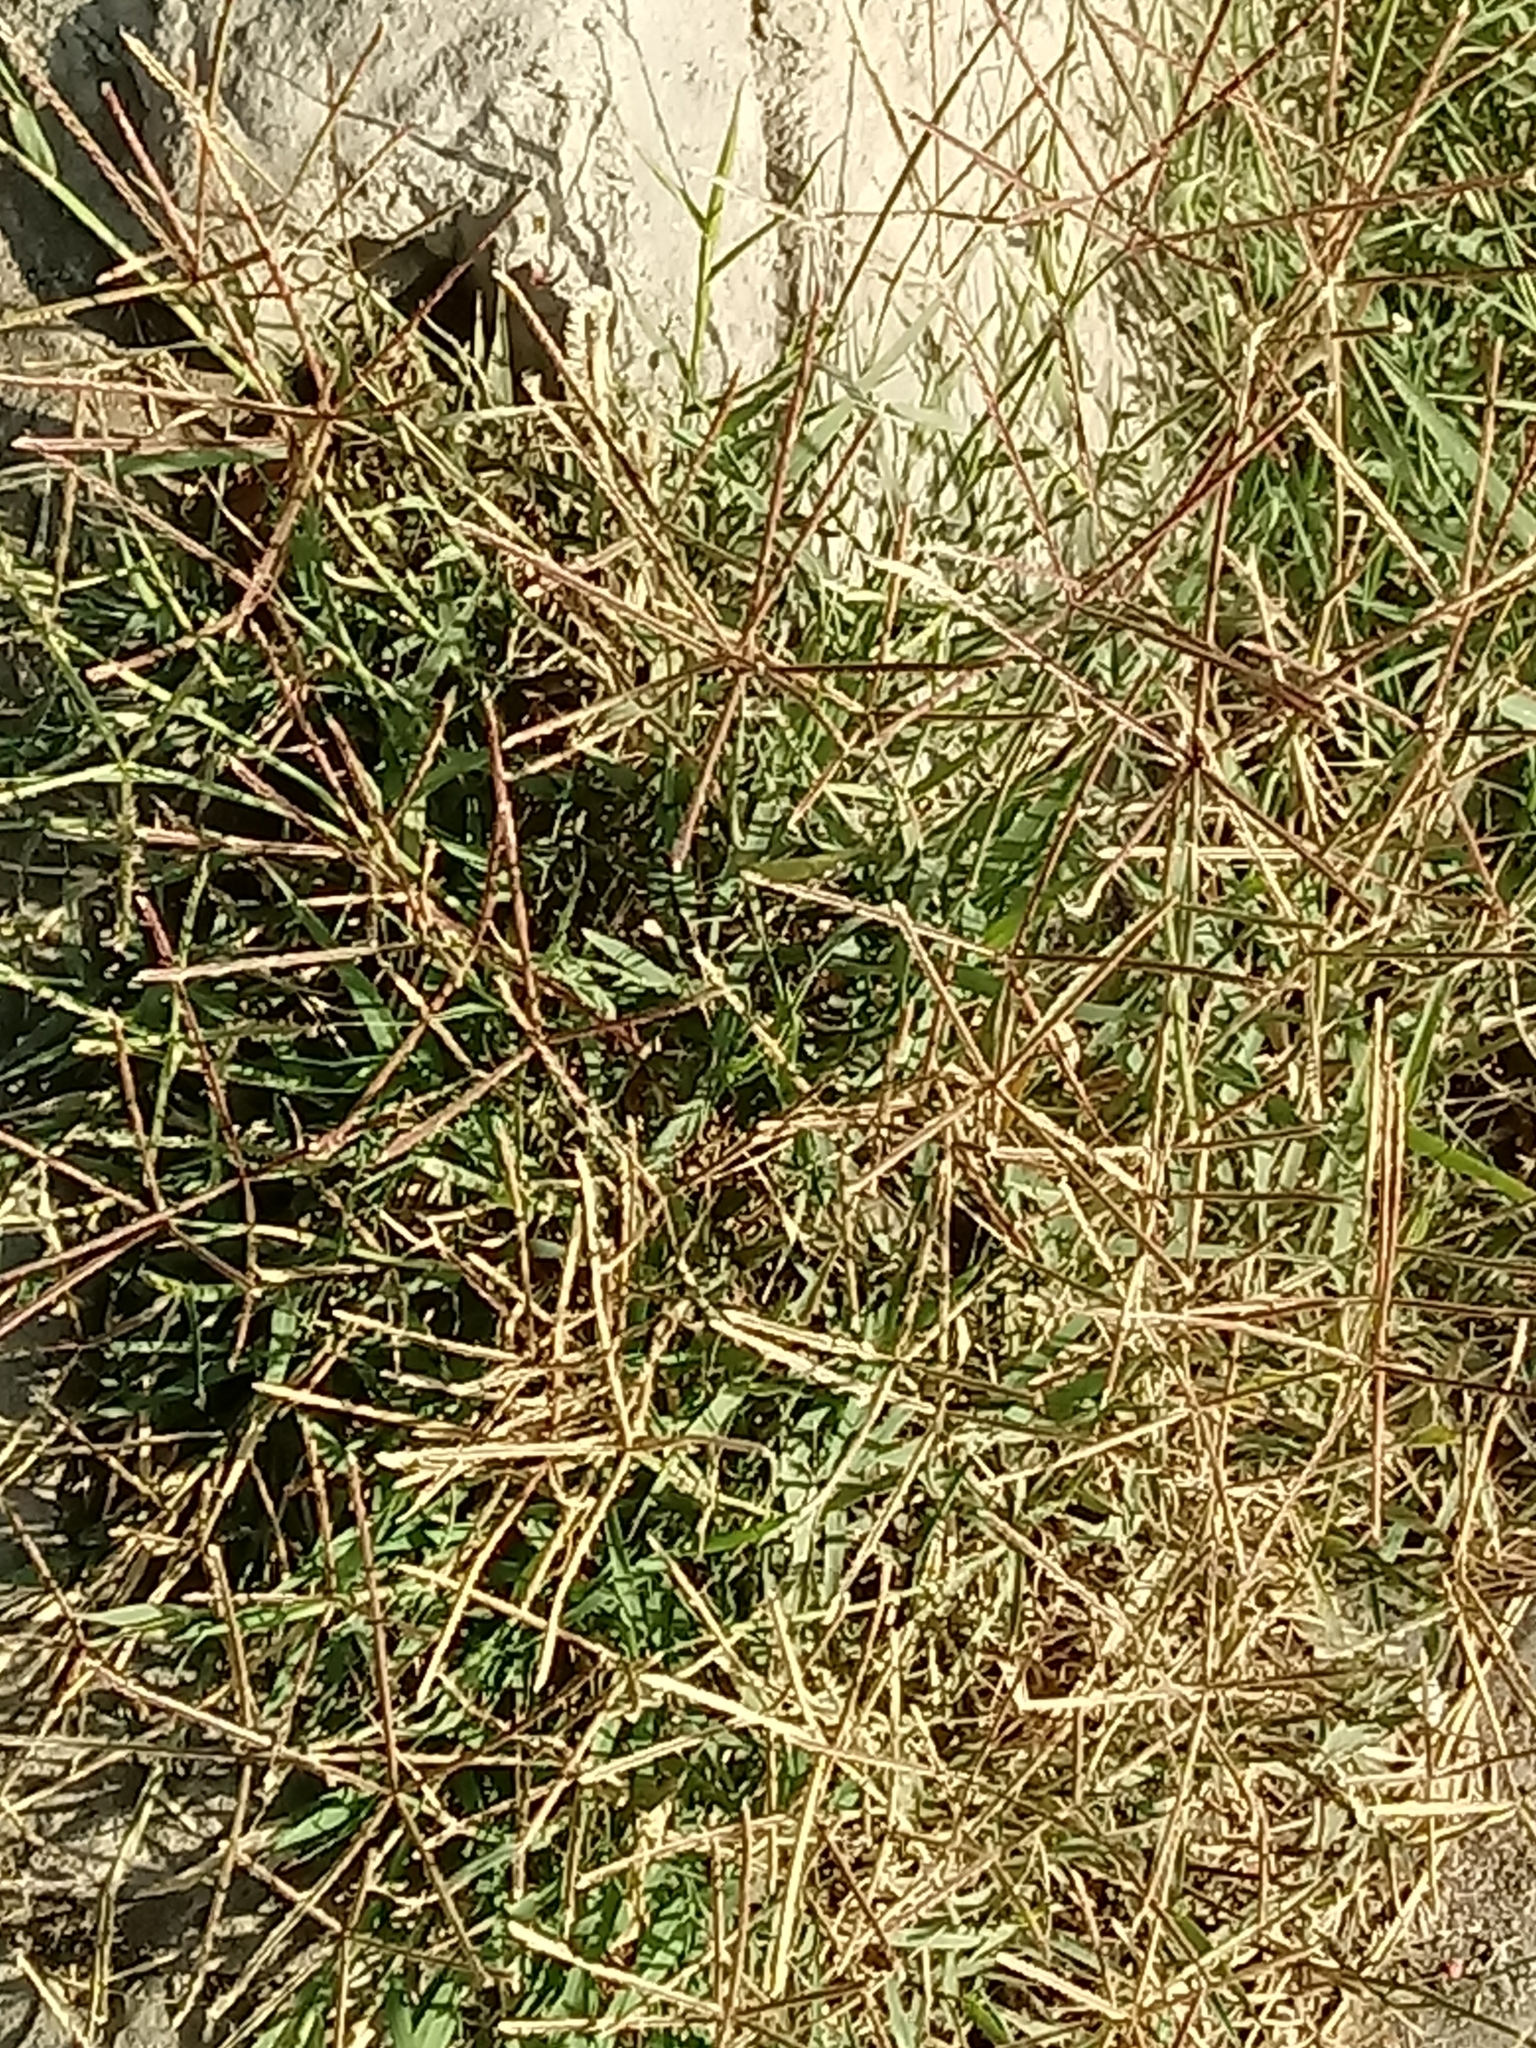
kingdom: Plantae
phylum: Tracheophyta
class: Liliopsida
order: Poales
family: Poaceae
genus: Cynodon
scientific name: Cynodon dactylon
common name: Bermuda grass
